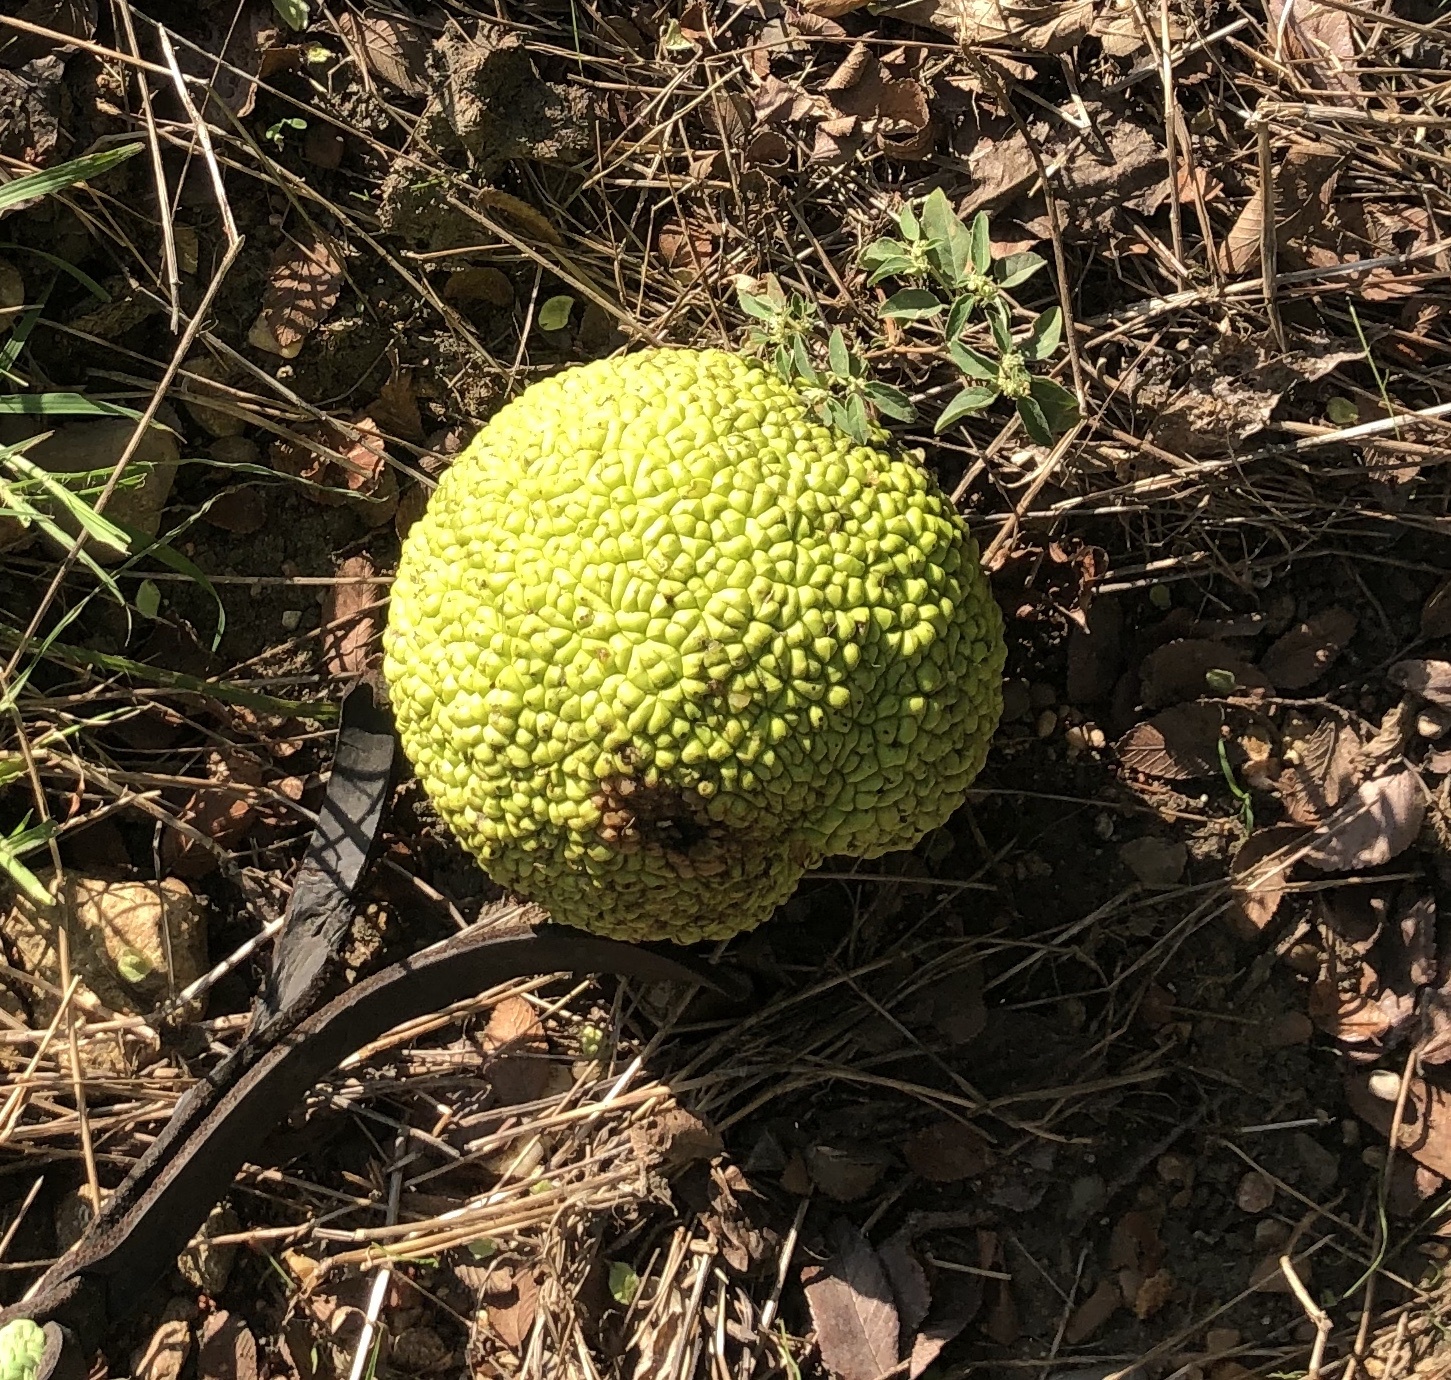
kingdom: Plantae
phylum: Tracheophyta
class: Magnoliopsida
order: Rosales
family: Moraceae
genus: Maclura
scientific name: Maclura pomifera
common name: Osage-orange
